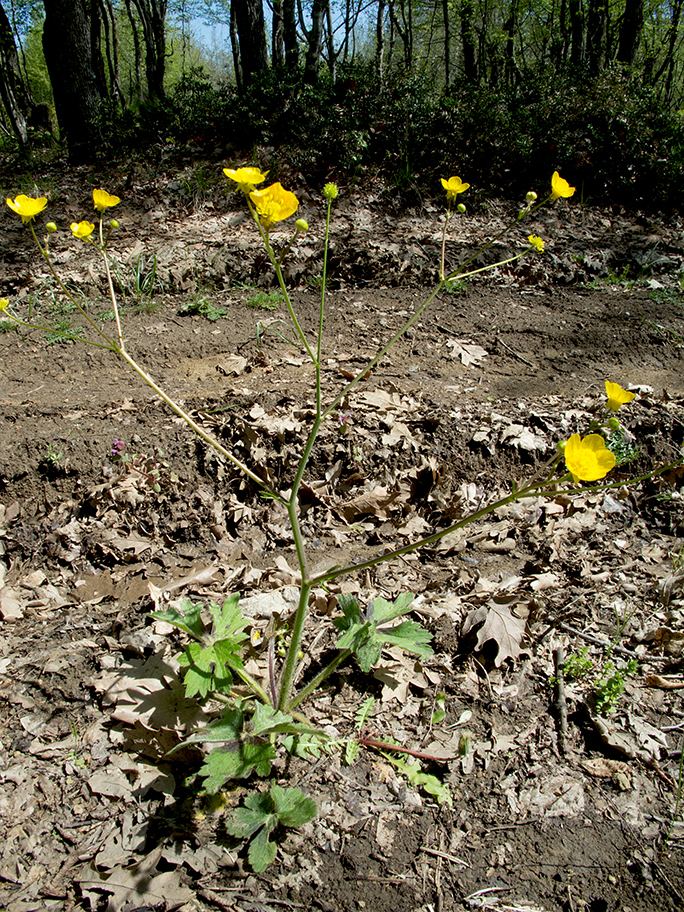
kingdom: Plantae
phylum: Tracheophyta
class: Magnoliopsida
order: Ranunculales
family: Ranunculaceae
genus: Ranunculus
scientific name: Ranunculus velutinus
